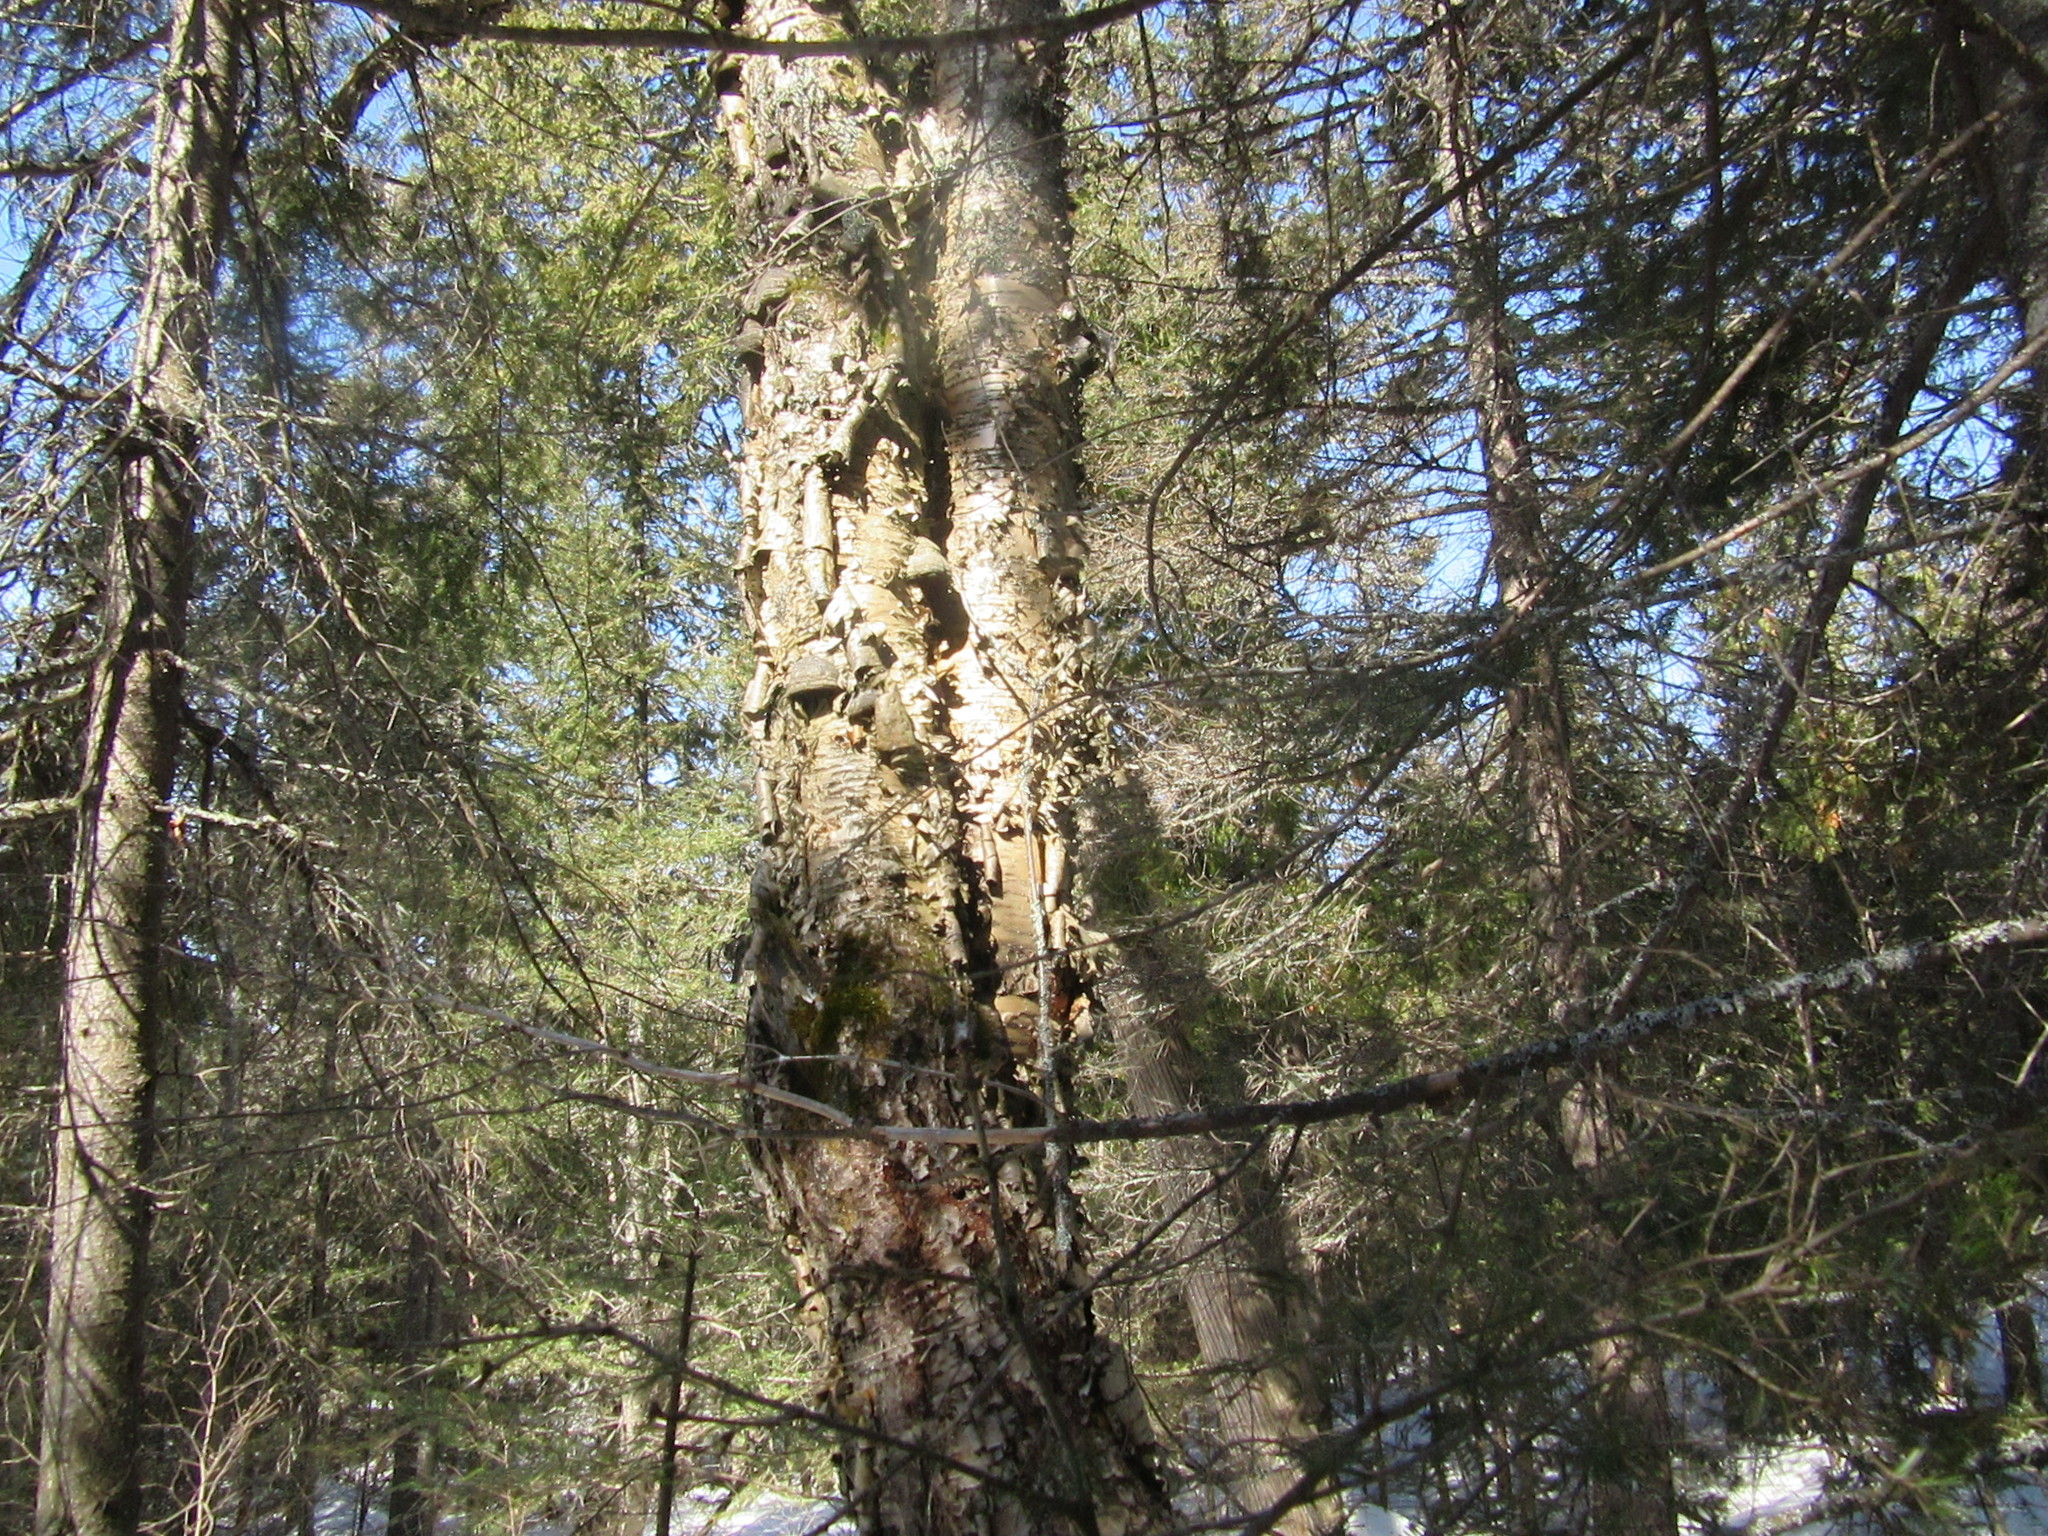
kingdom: Plantae
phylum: Tracheophyta
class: Magnoliopsida
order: Fagales
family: Betulaceae
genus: Betula
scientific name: Betula alleghaniensis
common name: Yellow birch
